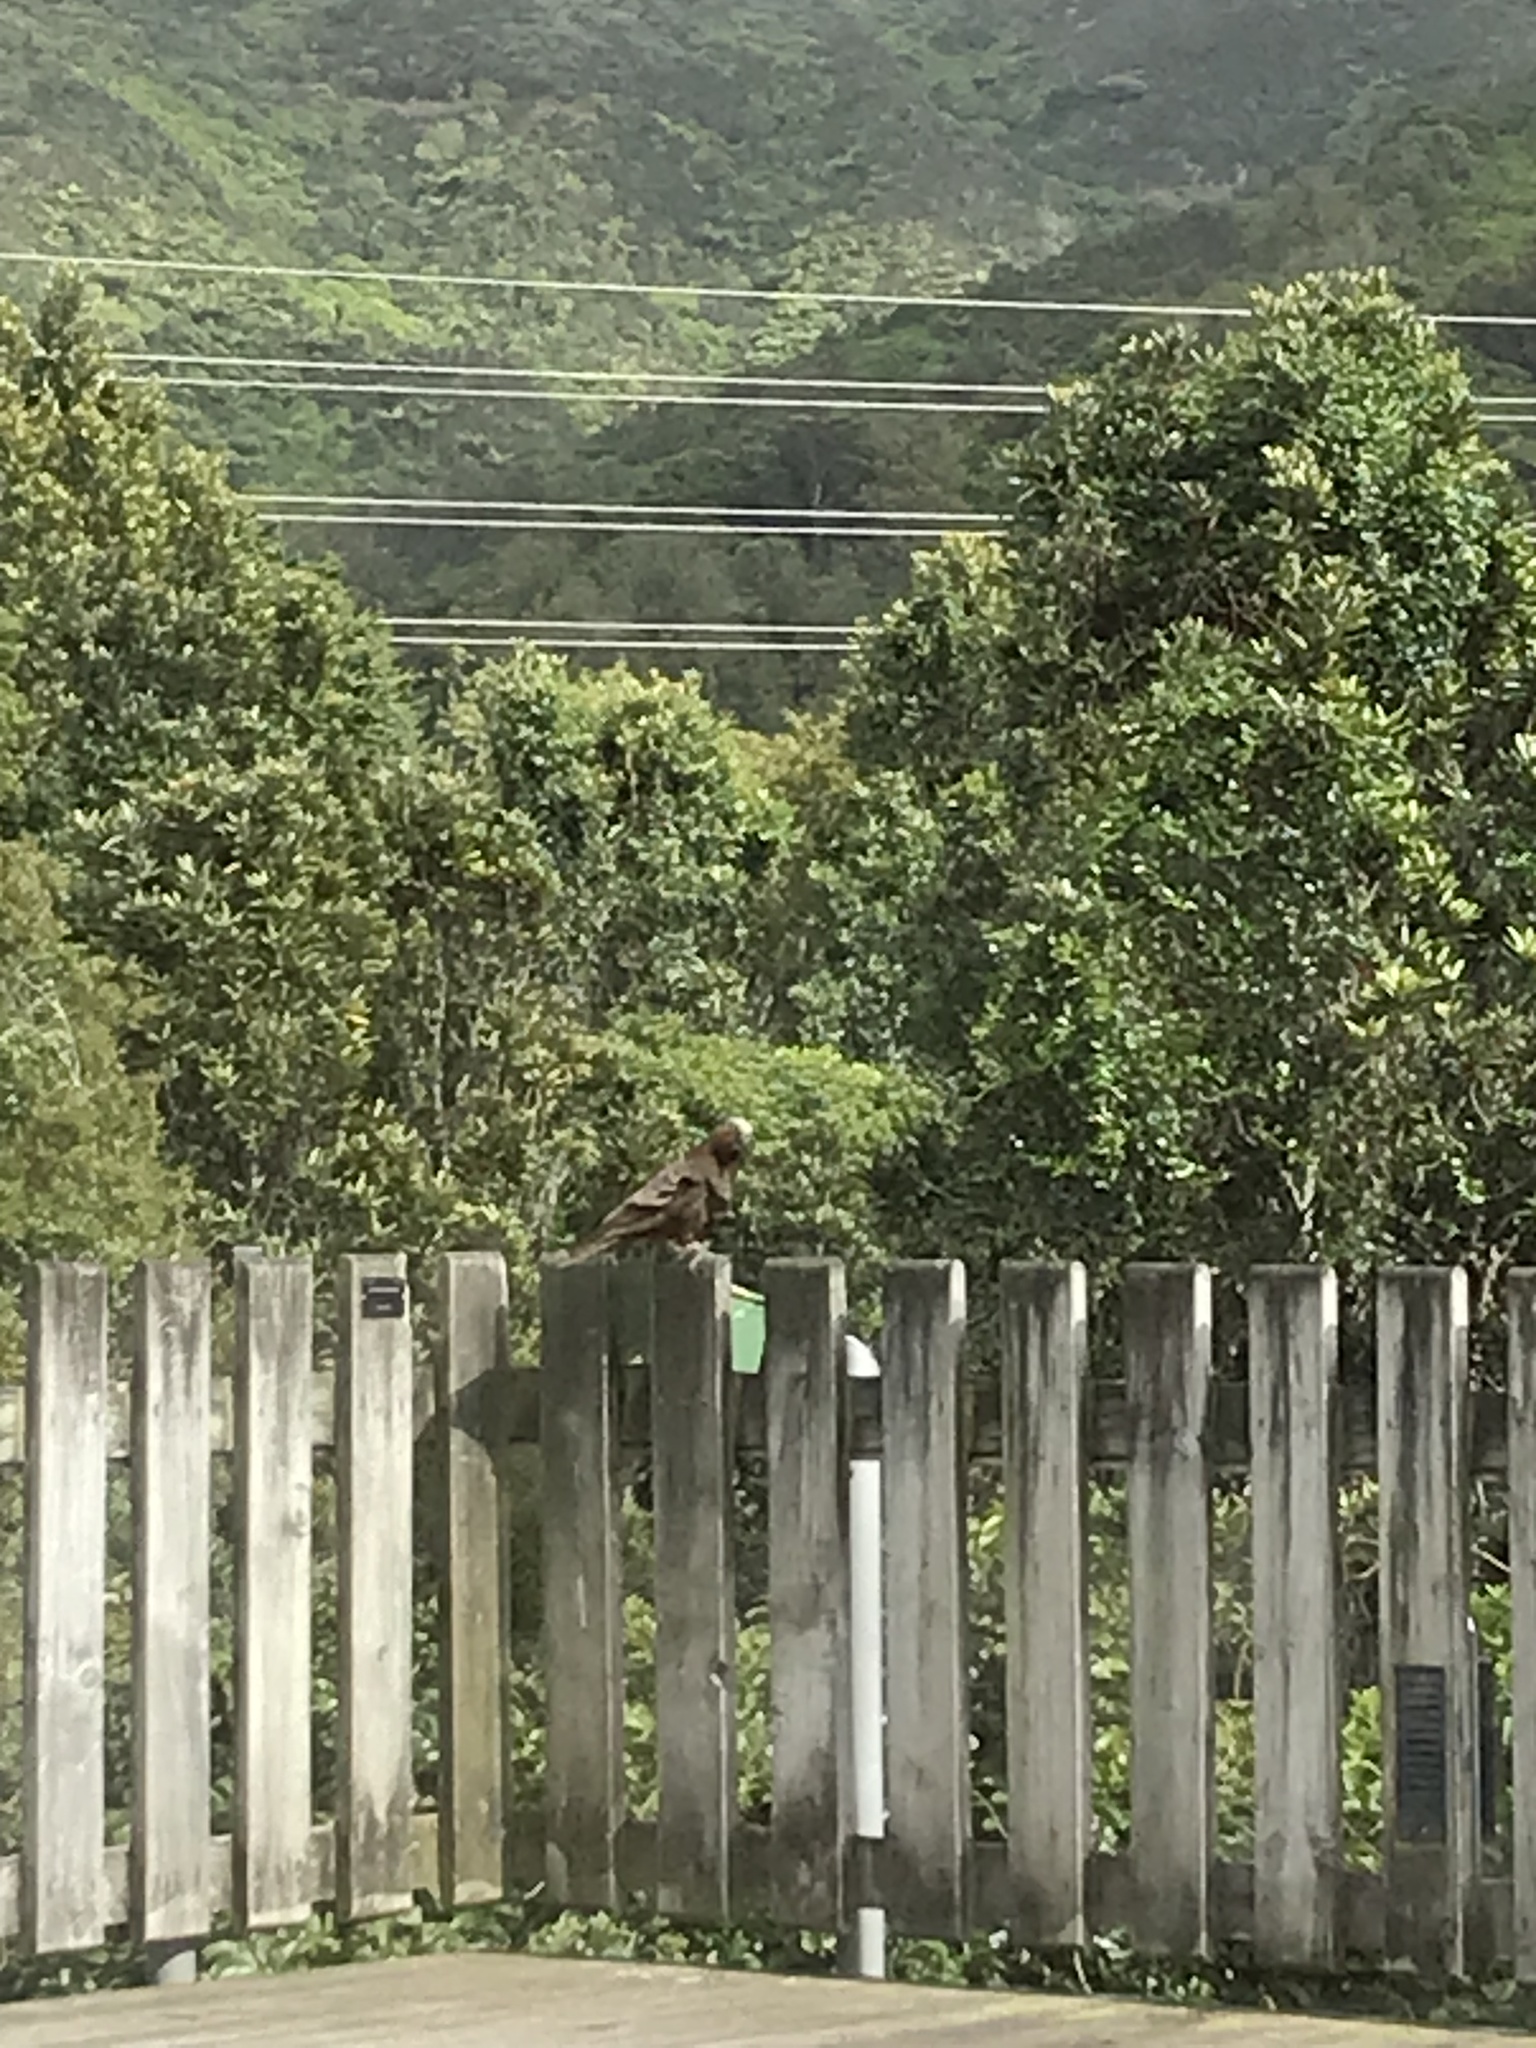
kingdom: Animalia
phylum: Chordata
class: Aves
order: Psittaciformes
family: Psittacidae
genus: Nestor
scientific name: Nestor meridionalis
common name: New zealand kaka
